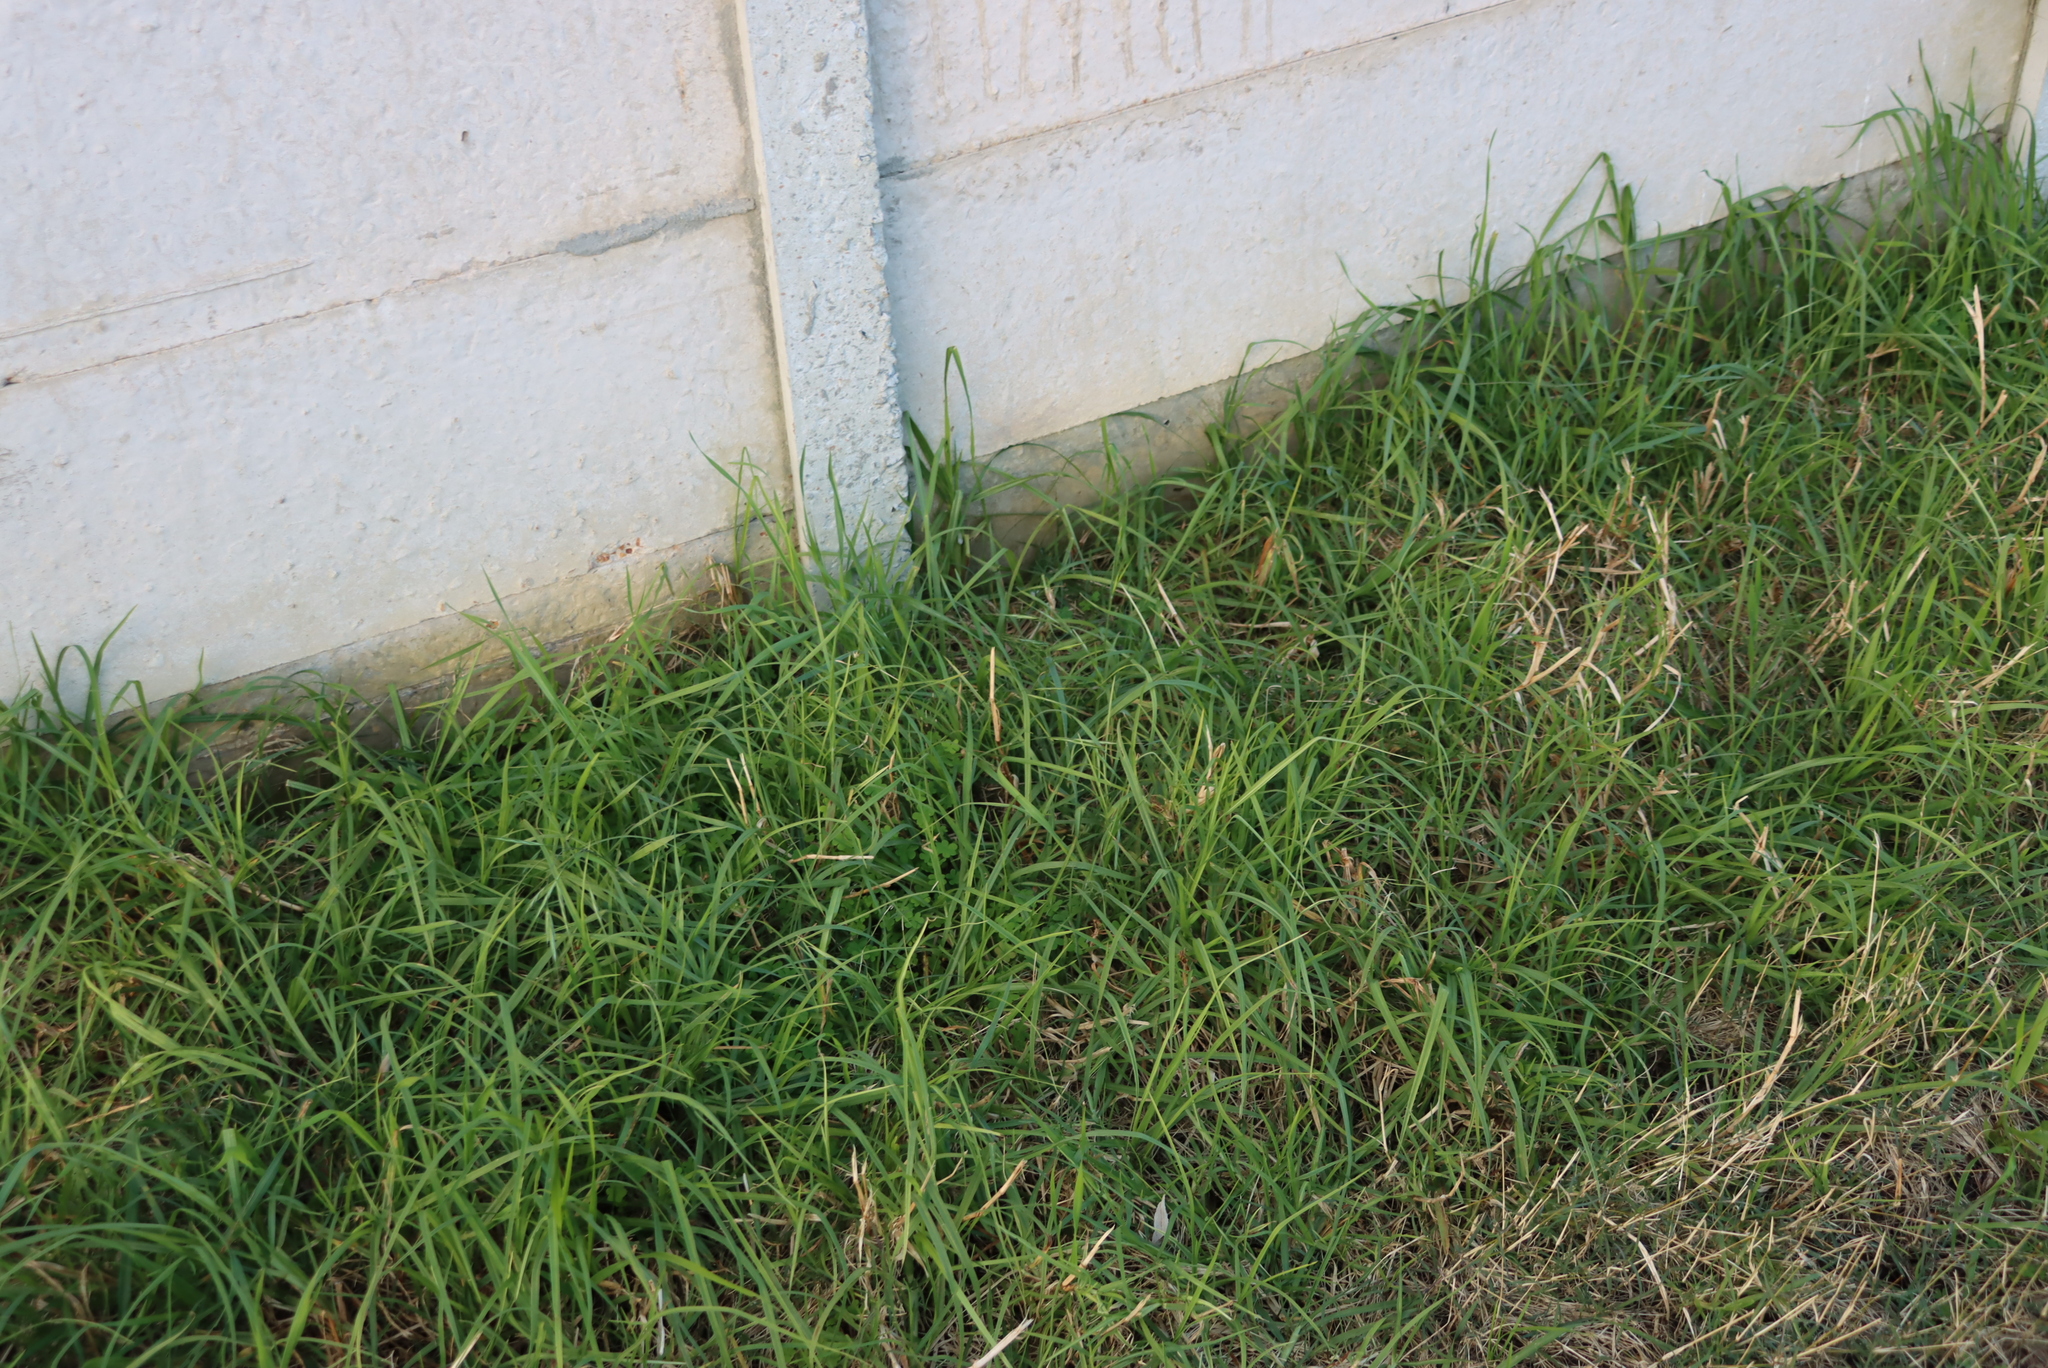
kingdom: Plantae
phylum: Tracheophyta
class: Liliopsida
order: Poales
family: Poaceae
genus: Cenchrus
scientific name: Cenchrus clandestinus
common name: Kikuyugrass
